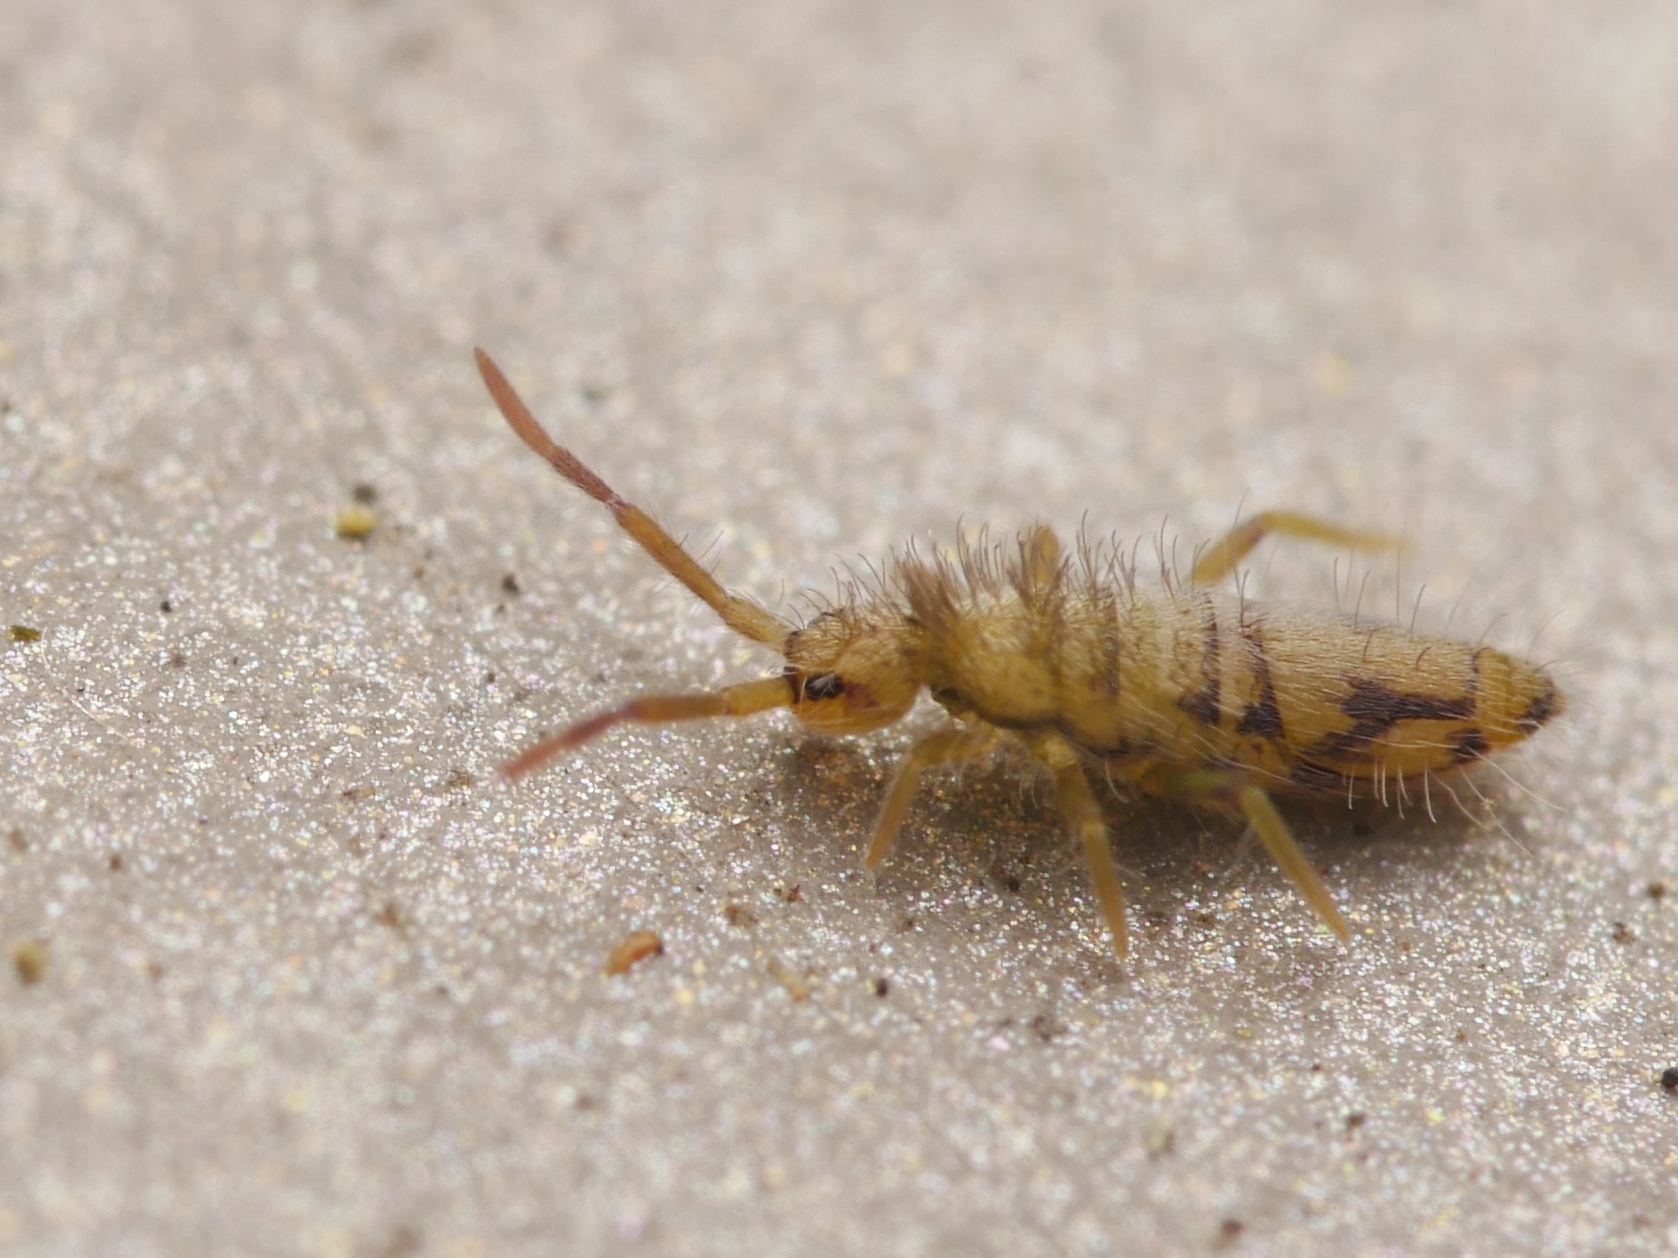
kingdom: Animalia
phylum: Arthropoda
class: Collembola
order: Entomobryomorpha
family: Entomobryidae
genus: Entomobrya
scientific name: Entomobrya nivalis
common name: Cosmopolitan springtail
